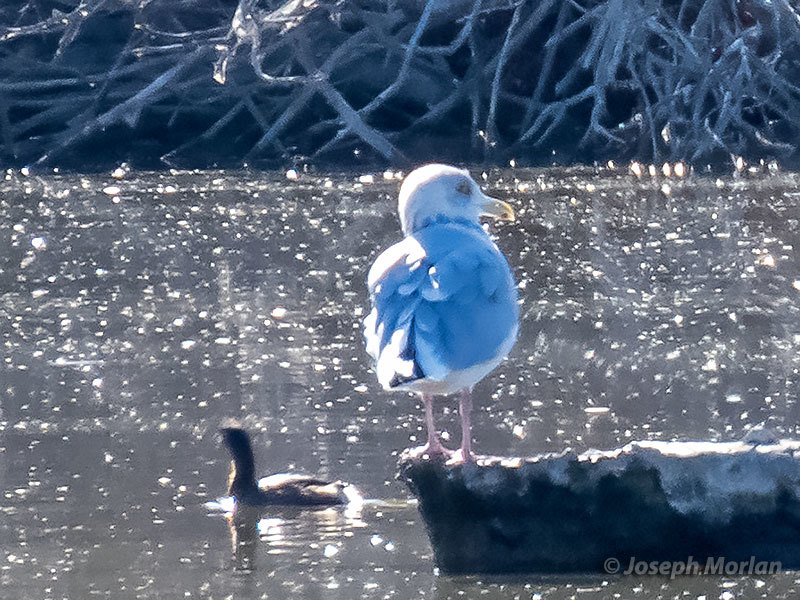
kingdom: Animalia
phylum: Chordata
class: Aves
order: Charadriiformes
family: Laridae
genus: Larus
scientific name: Larus argentatus
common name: Herring gull
